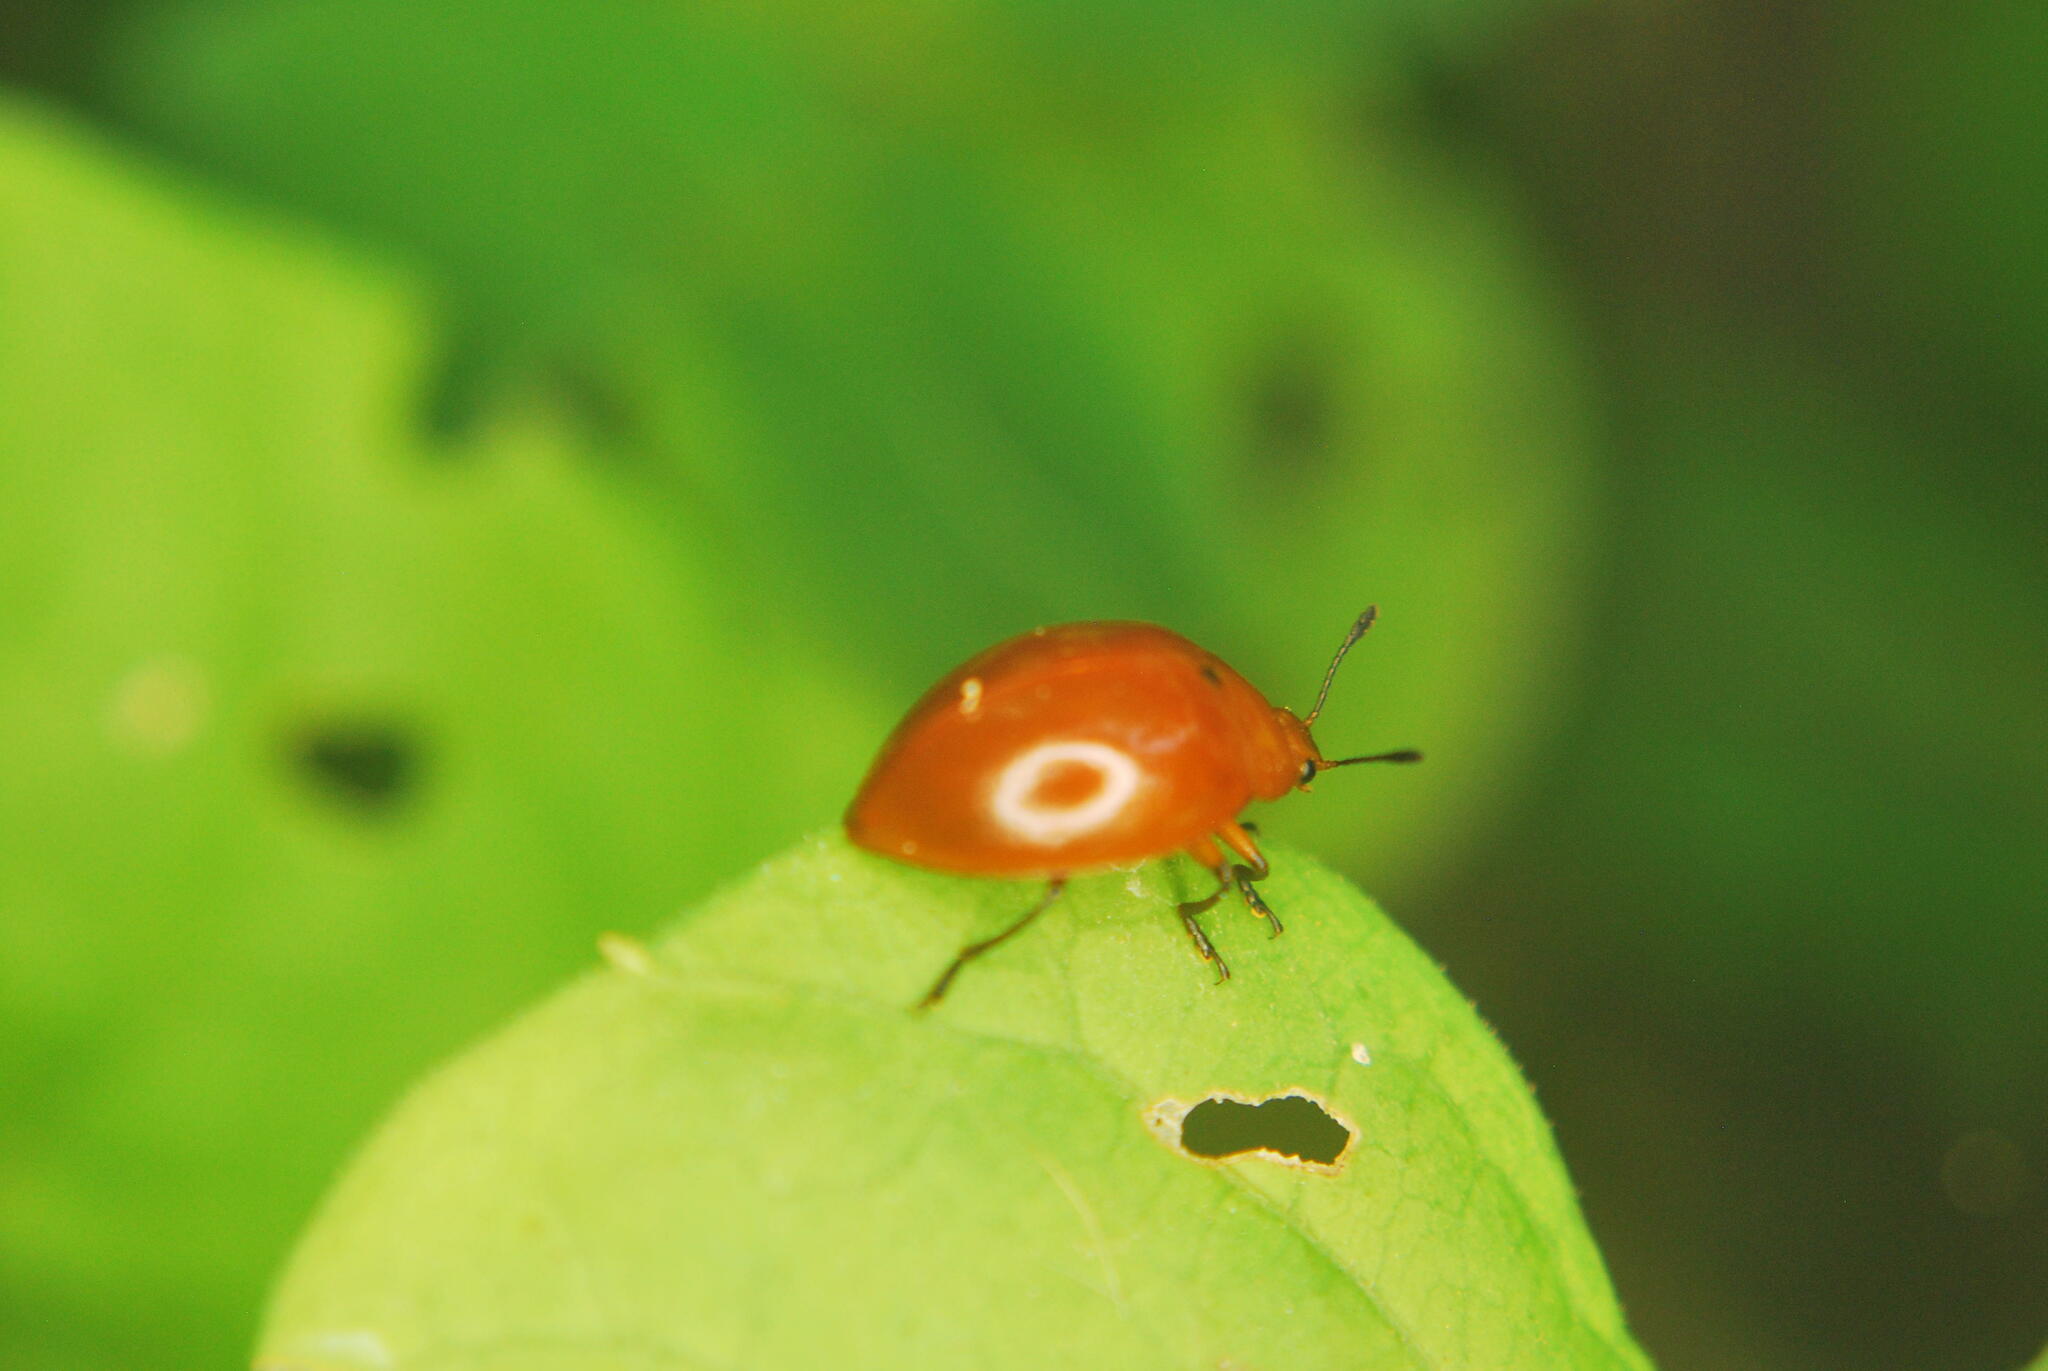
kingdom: Animalia
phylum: Arthropoda
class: Insecta
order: Coleoptera
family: Erotylidae
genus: Aegithus
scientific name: Aegithus
